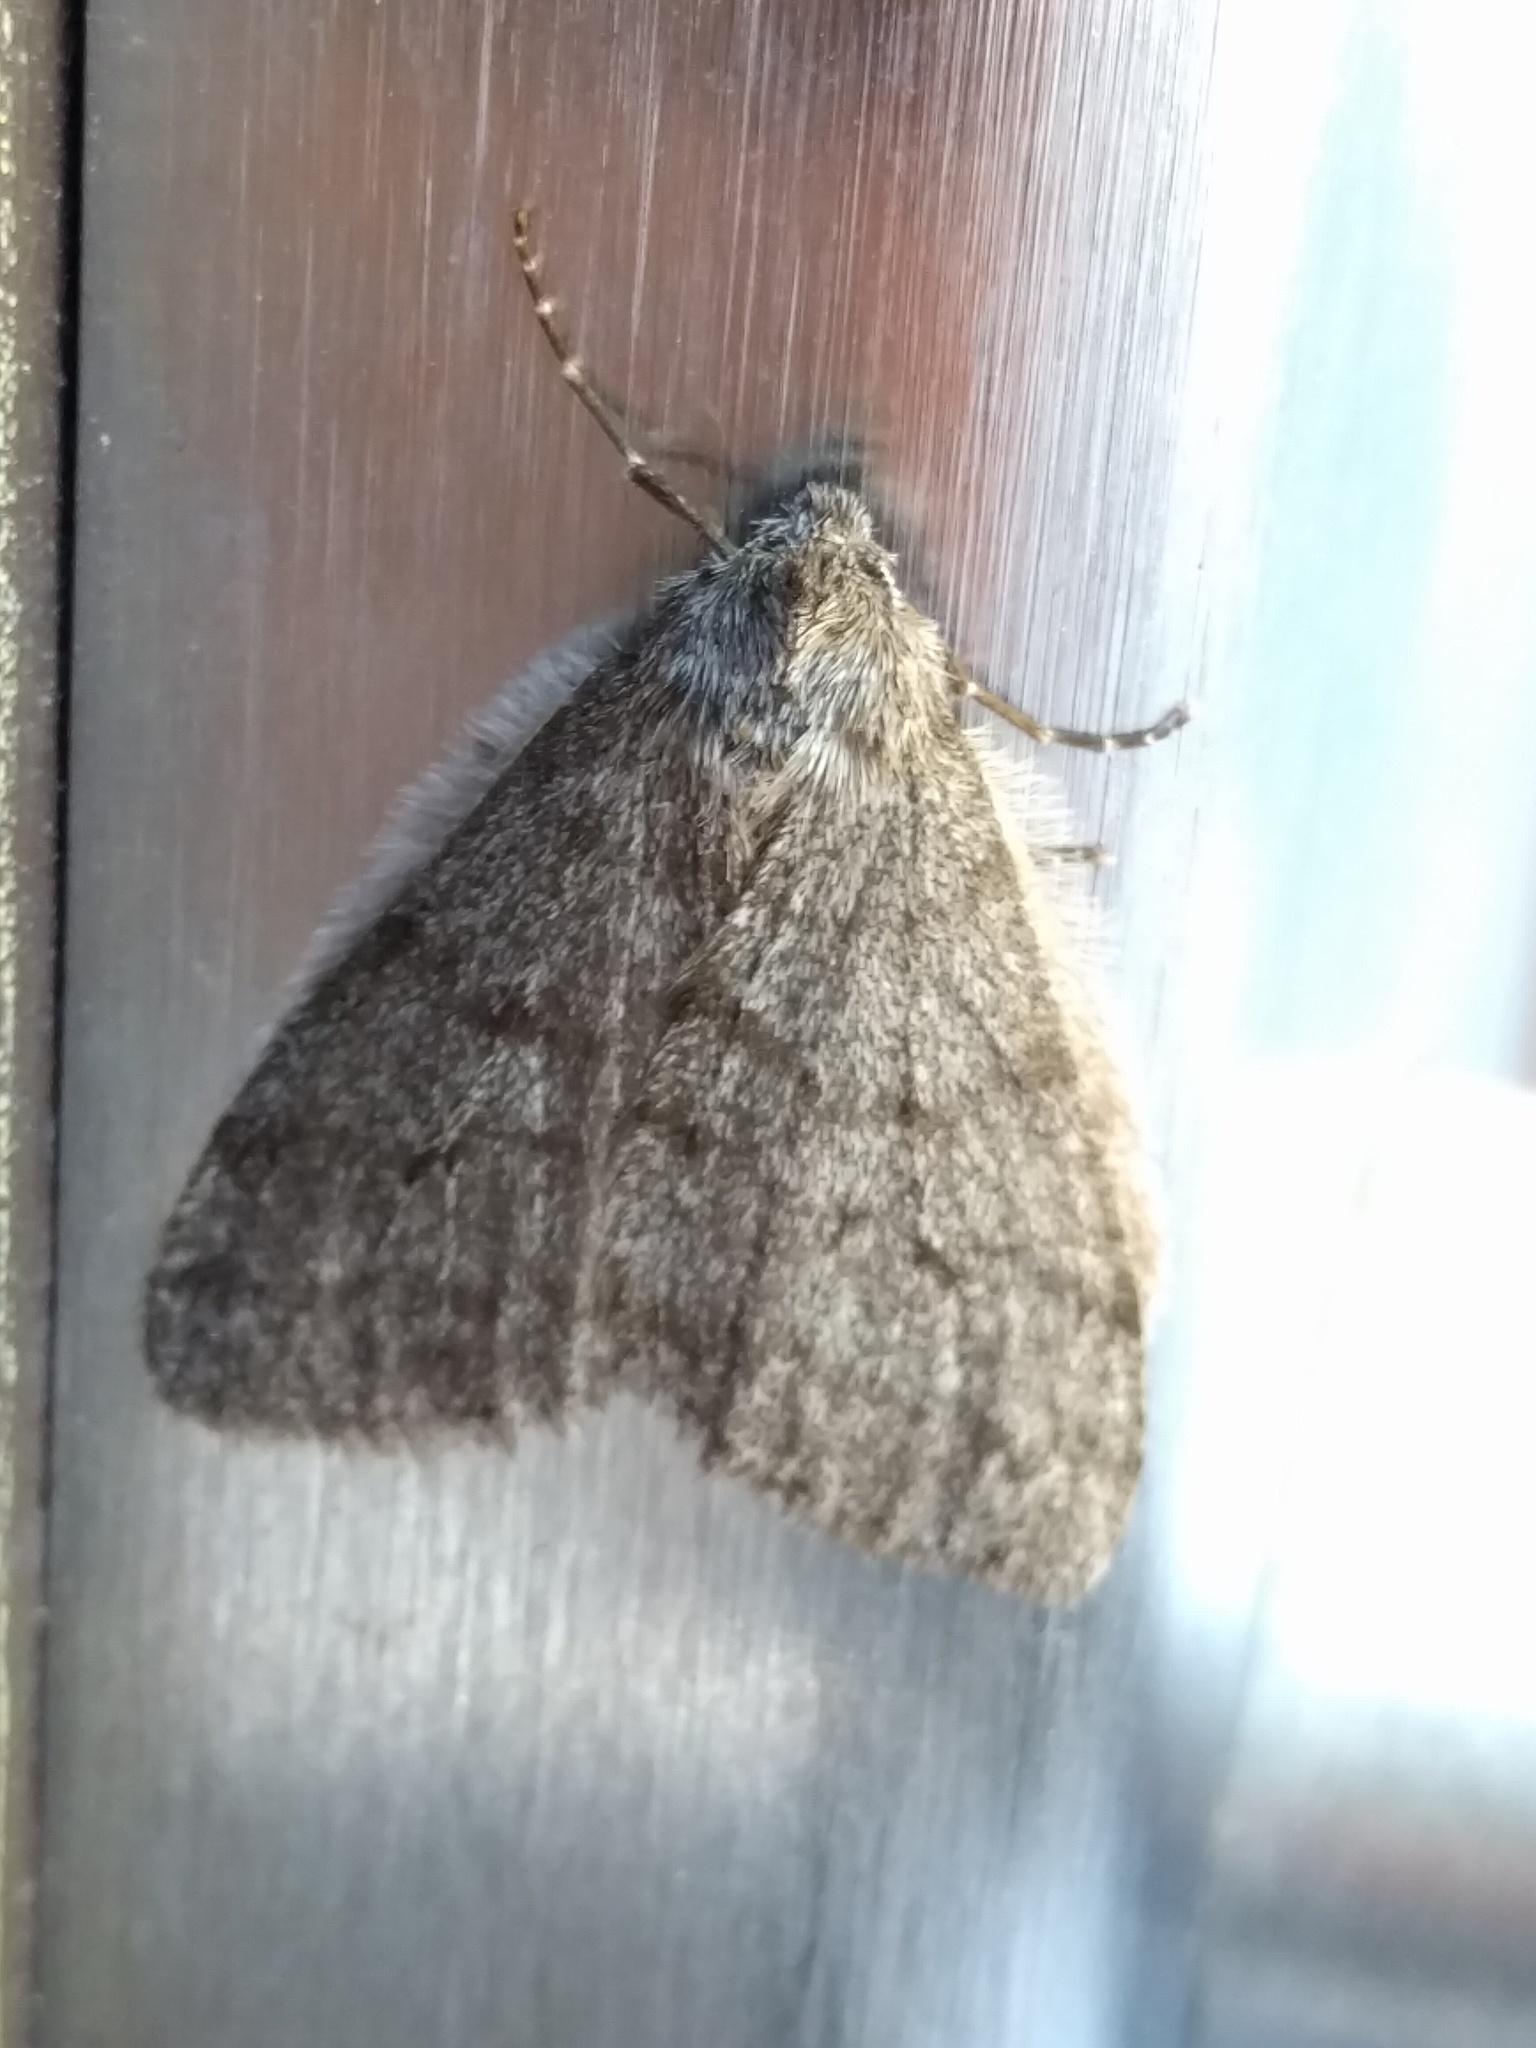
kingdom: Animalia
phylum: Arthropoda
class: Insecta
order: Lepidoptera
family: Geometridae
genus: Phigalia
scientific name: Phigalia plumogeraria
